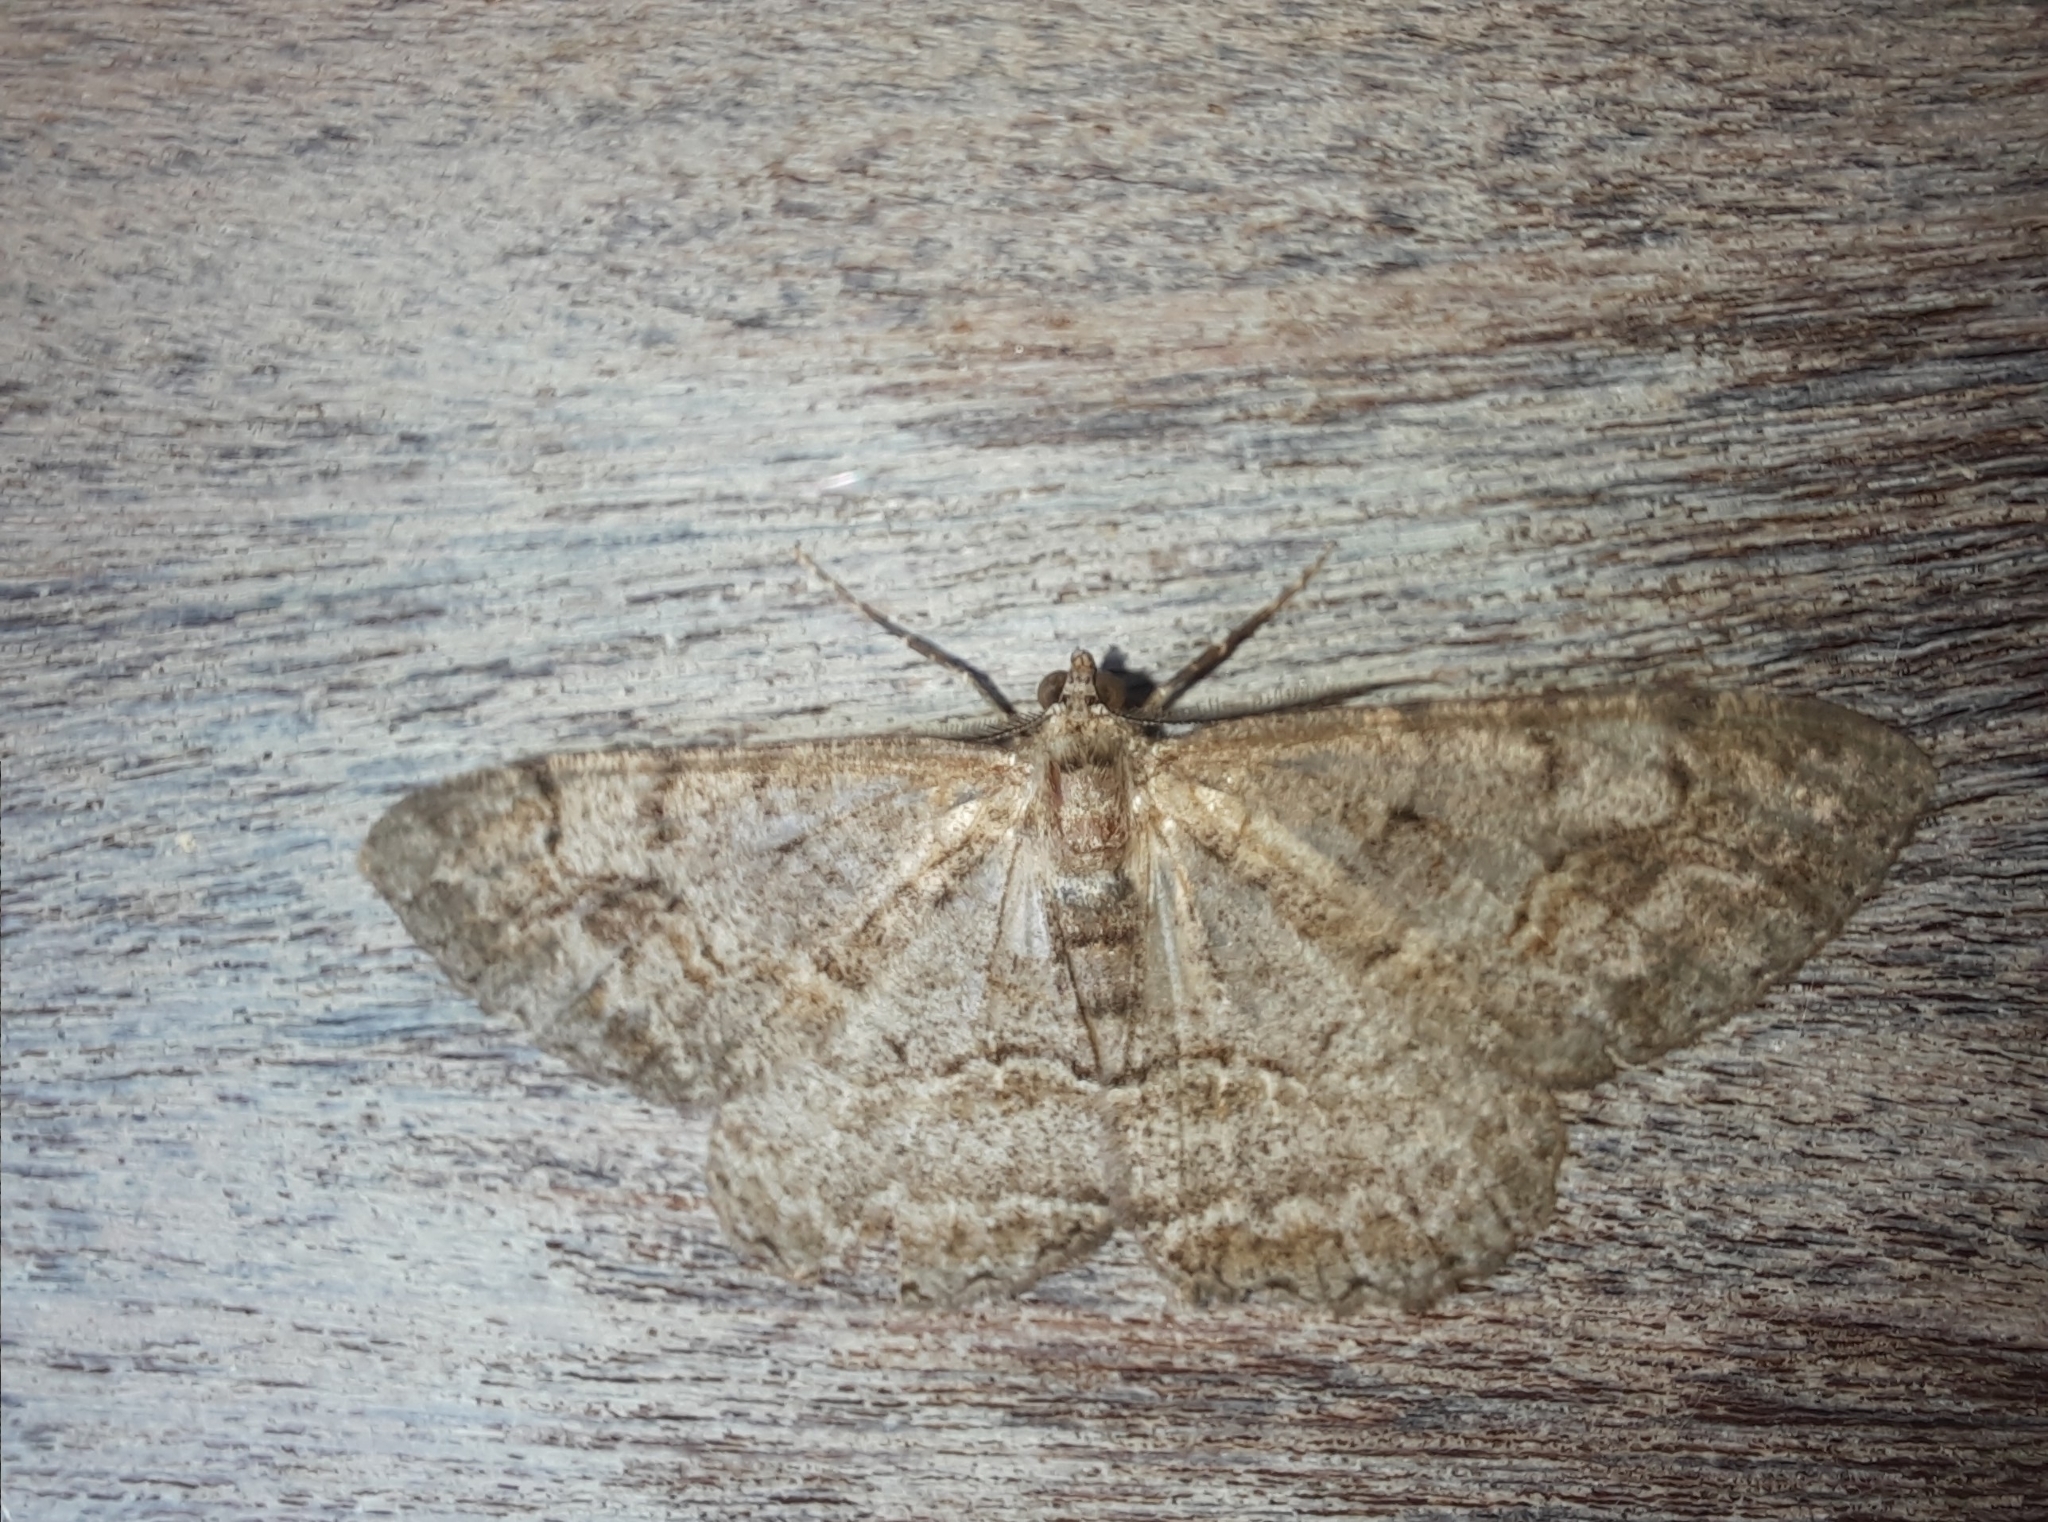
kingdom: Animalia
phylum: Arthropoda
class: Insecta
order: Lepidoptera
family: Geometridae
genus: Alcis
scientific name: Alcis repandata
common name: Mottled beauty
